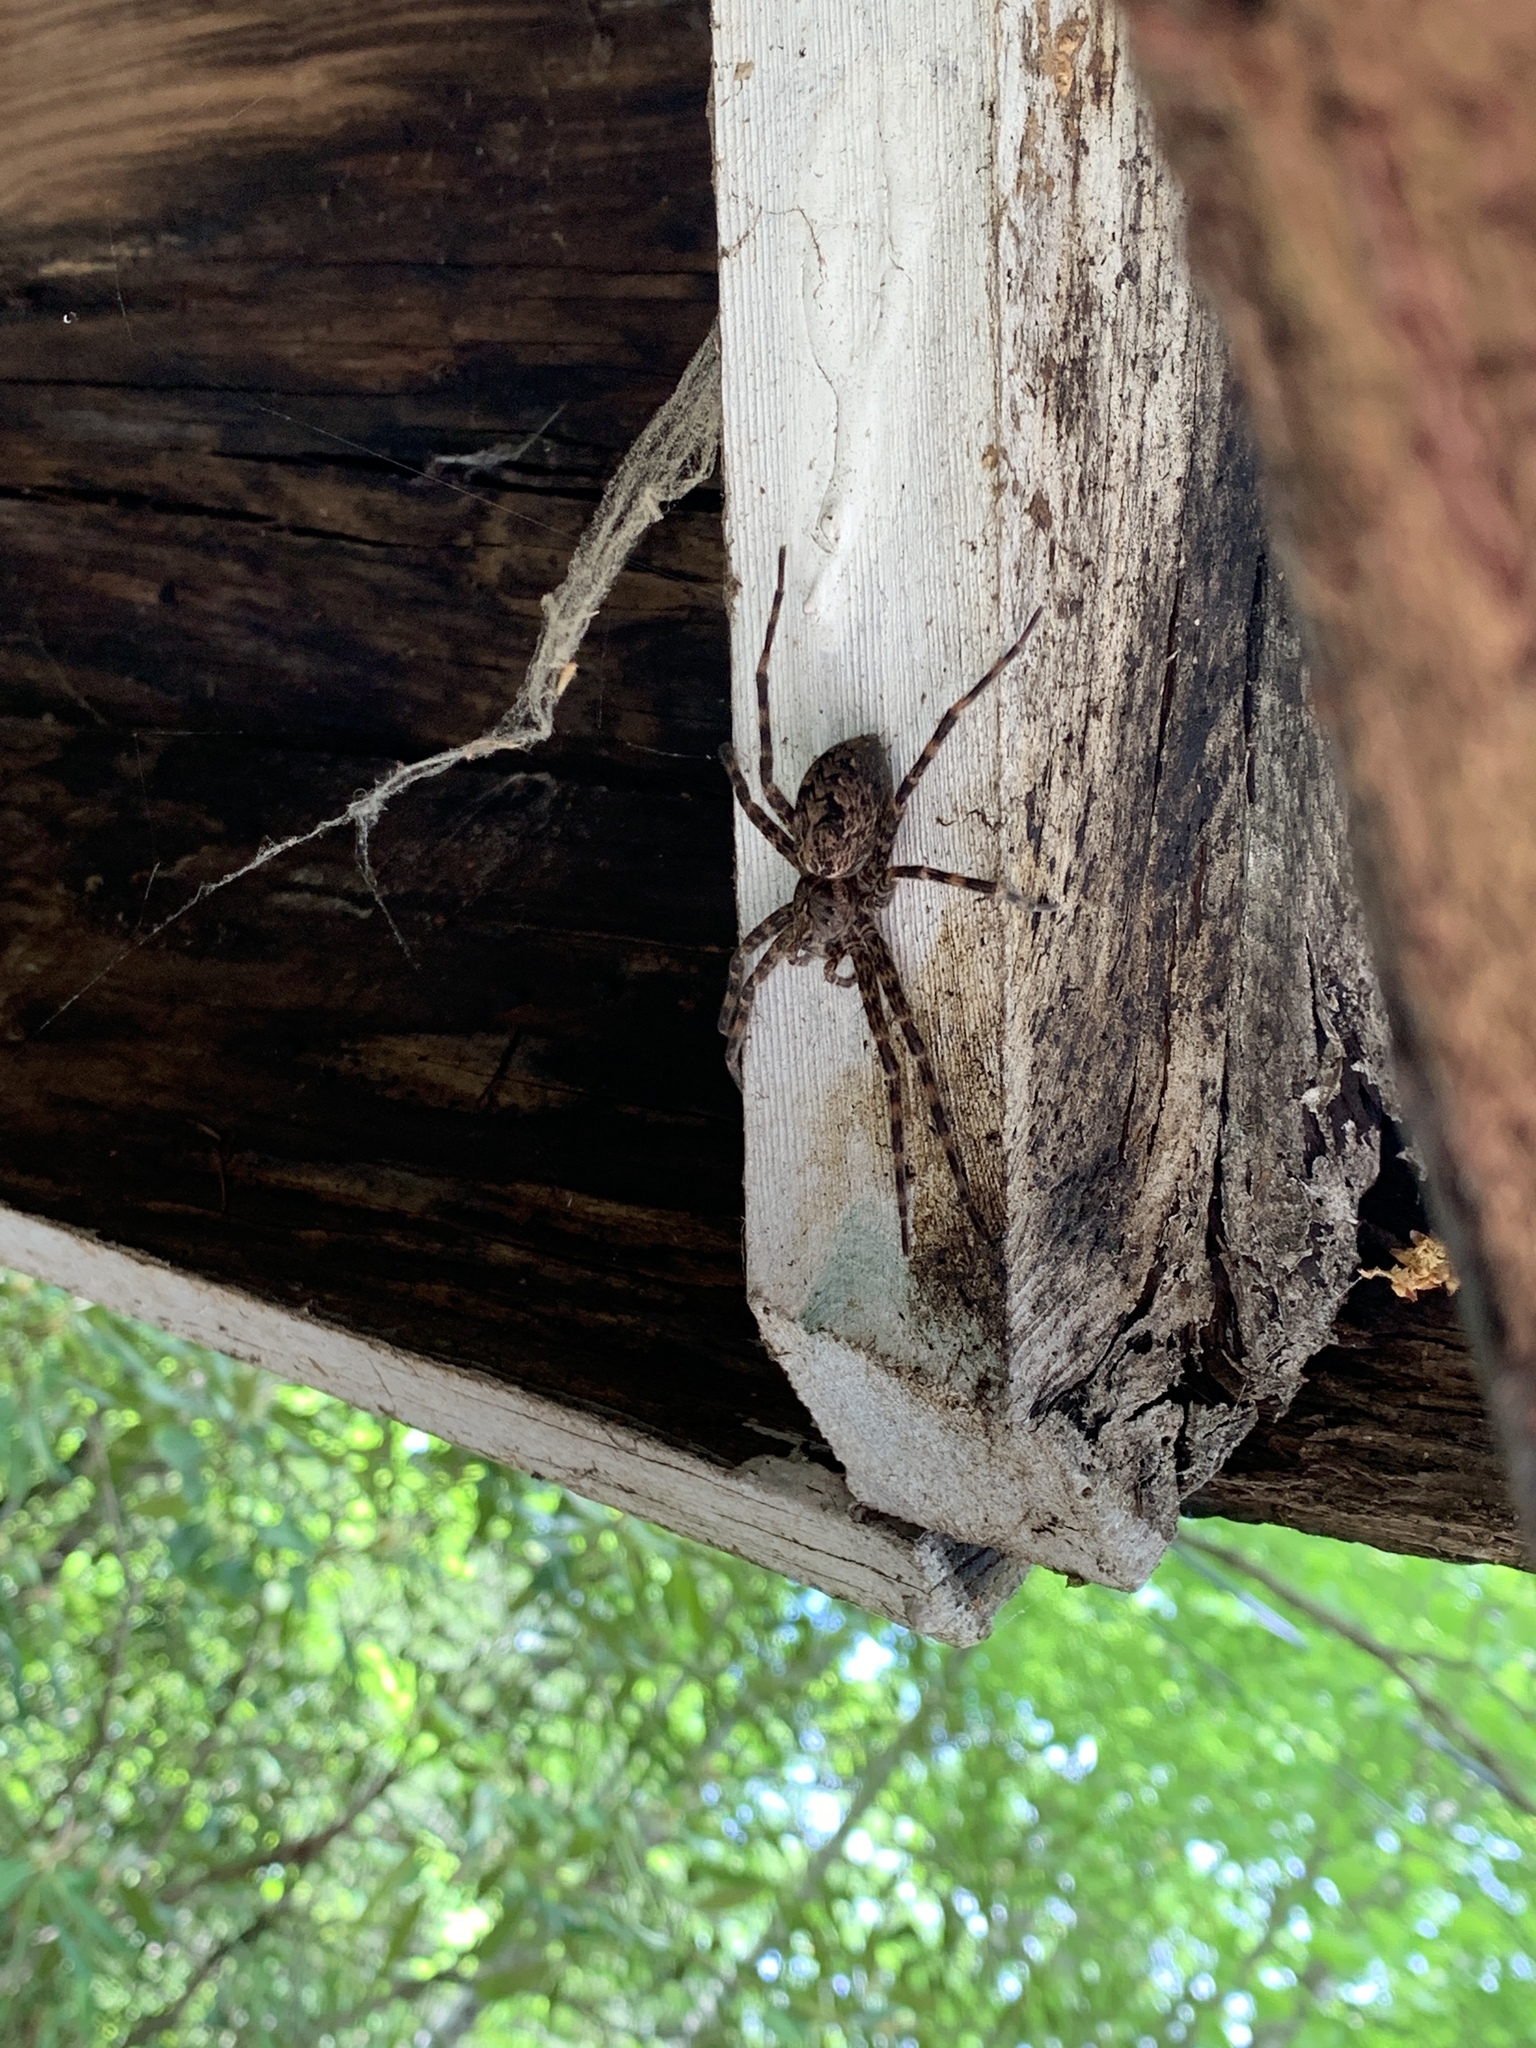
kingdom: Animalia
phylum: Arthropoda
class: Arachnida
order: Araneae
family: Pisauridae
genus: Dolomedes
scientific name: Dolomedes tenebrosus
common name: Dark fishing spider
